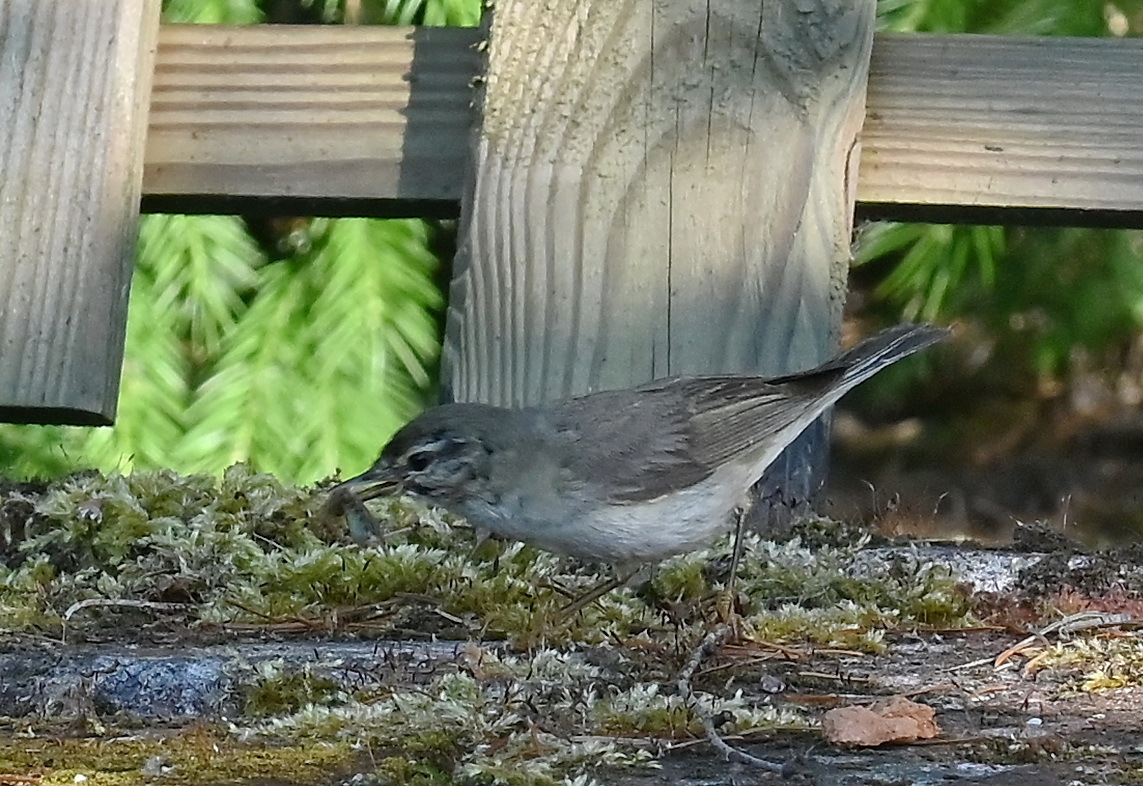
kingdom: Animalia
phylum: Chordata
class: Aves
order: Passeriformes
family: Phylloscopidae
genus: Phylloscopus
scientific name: Phylloscopus trochilus
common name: Willow warbler
